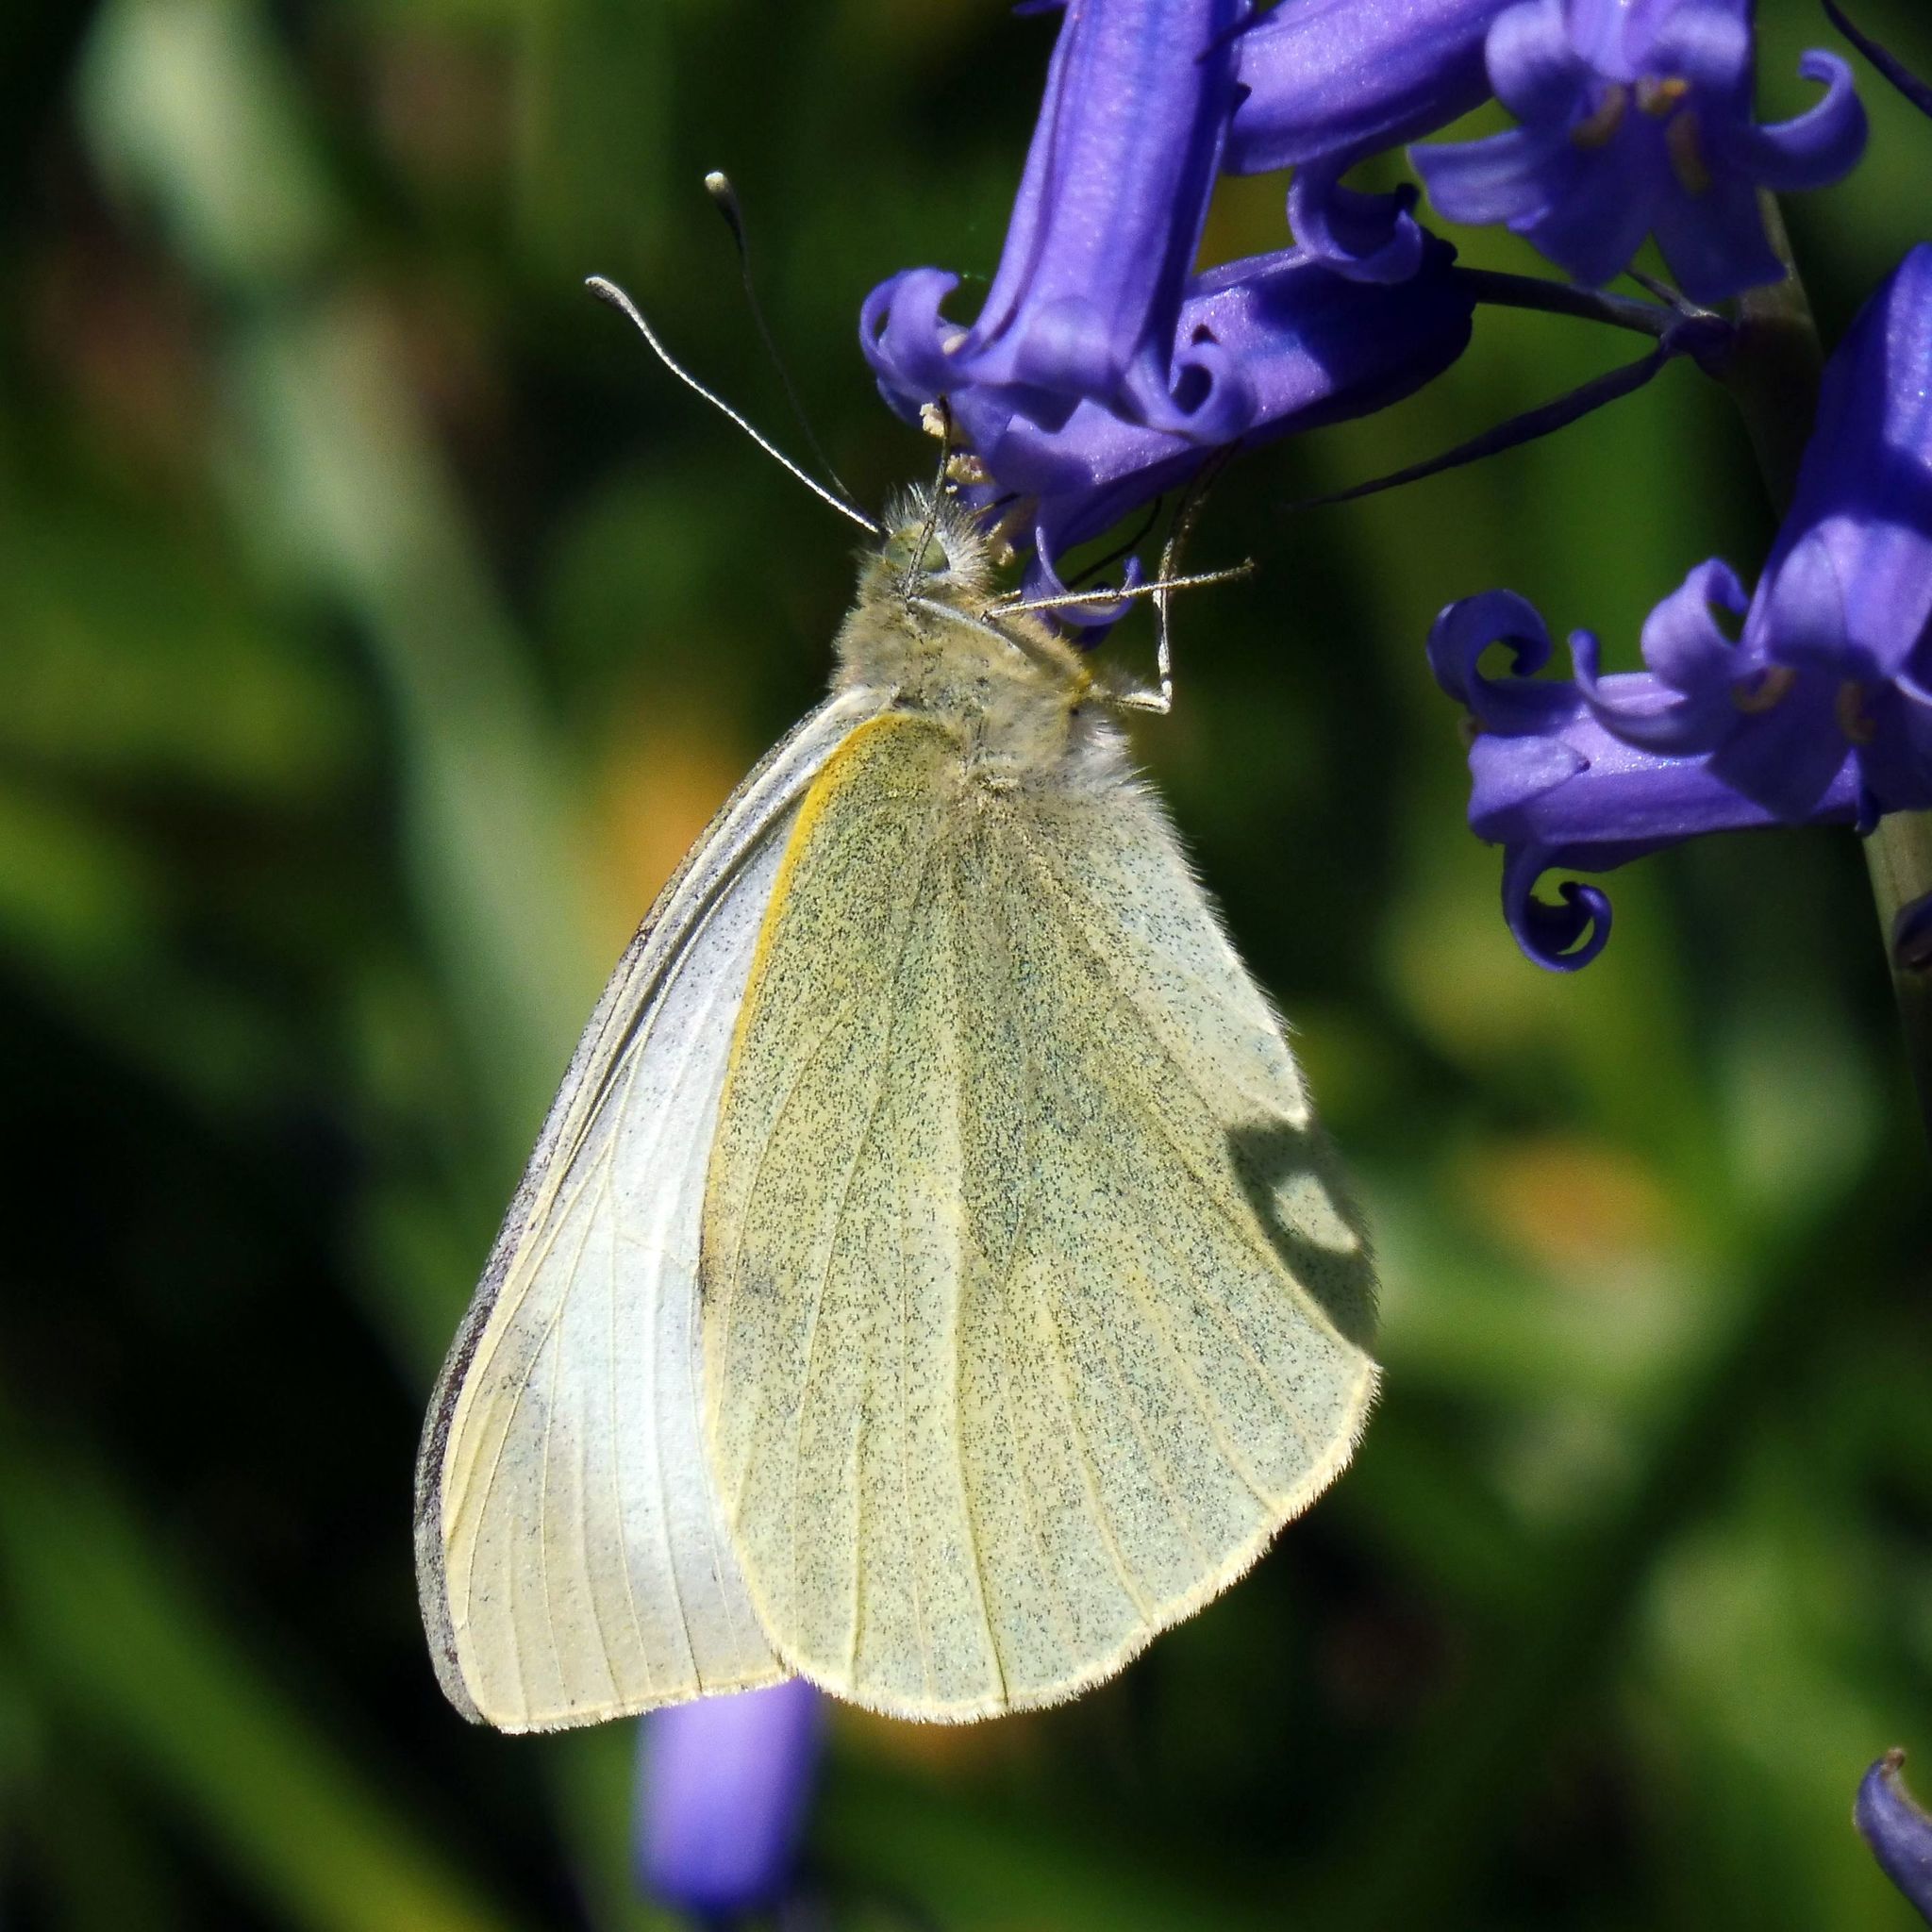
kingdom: Animalia
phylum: Arthropoda
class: Insecta
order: Lepidoptera
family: Pieridae
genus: Pieris
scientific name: Pieris brassicae
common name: Large white
